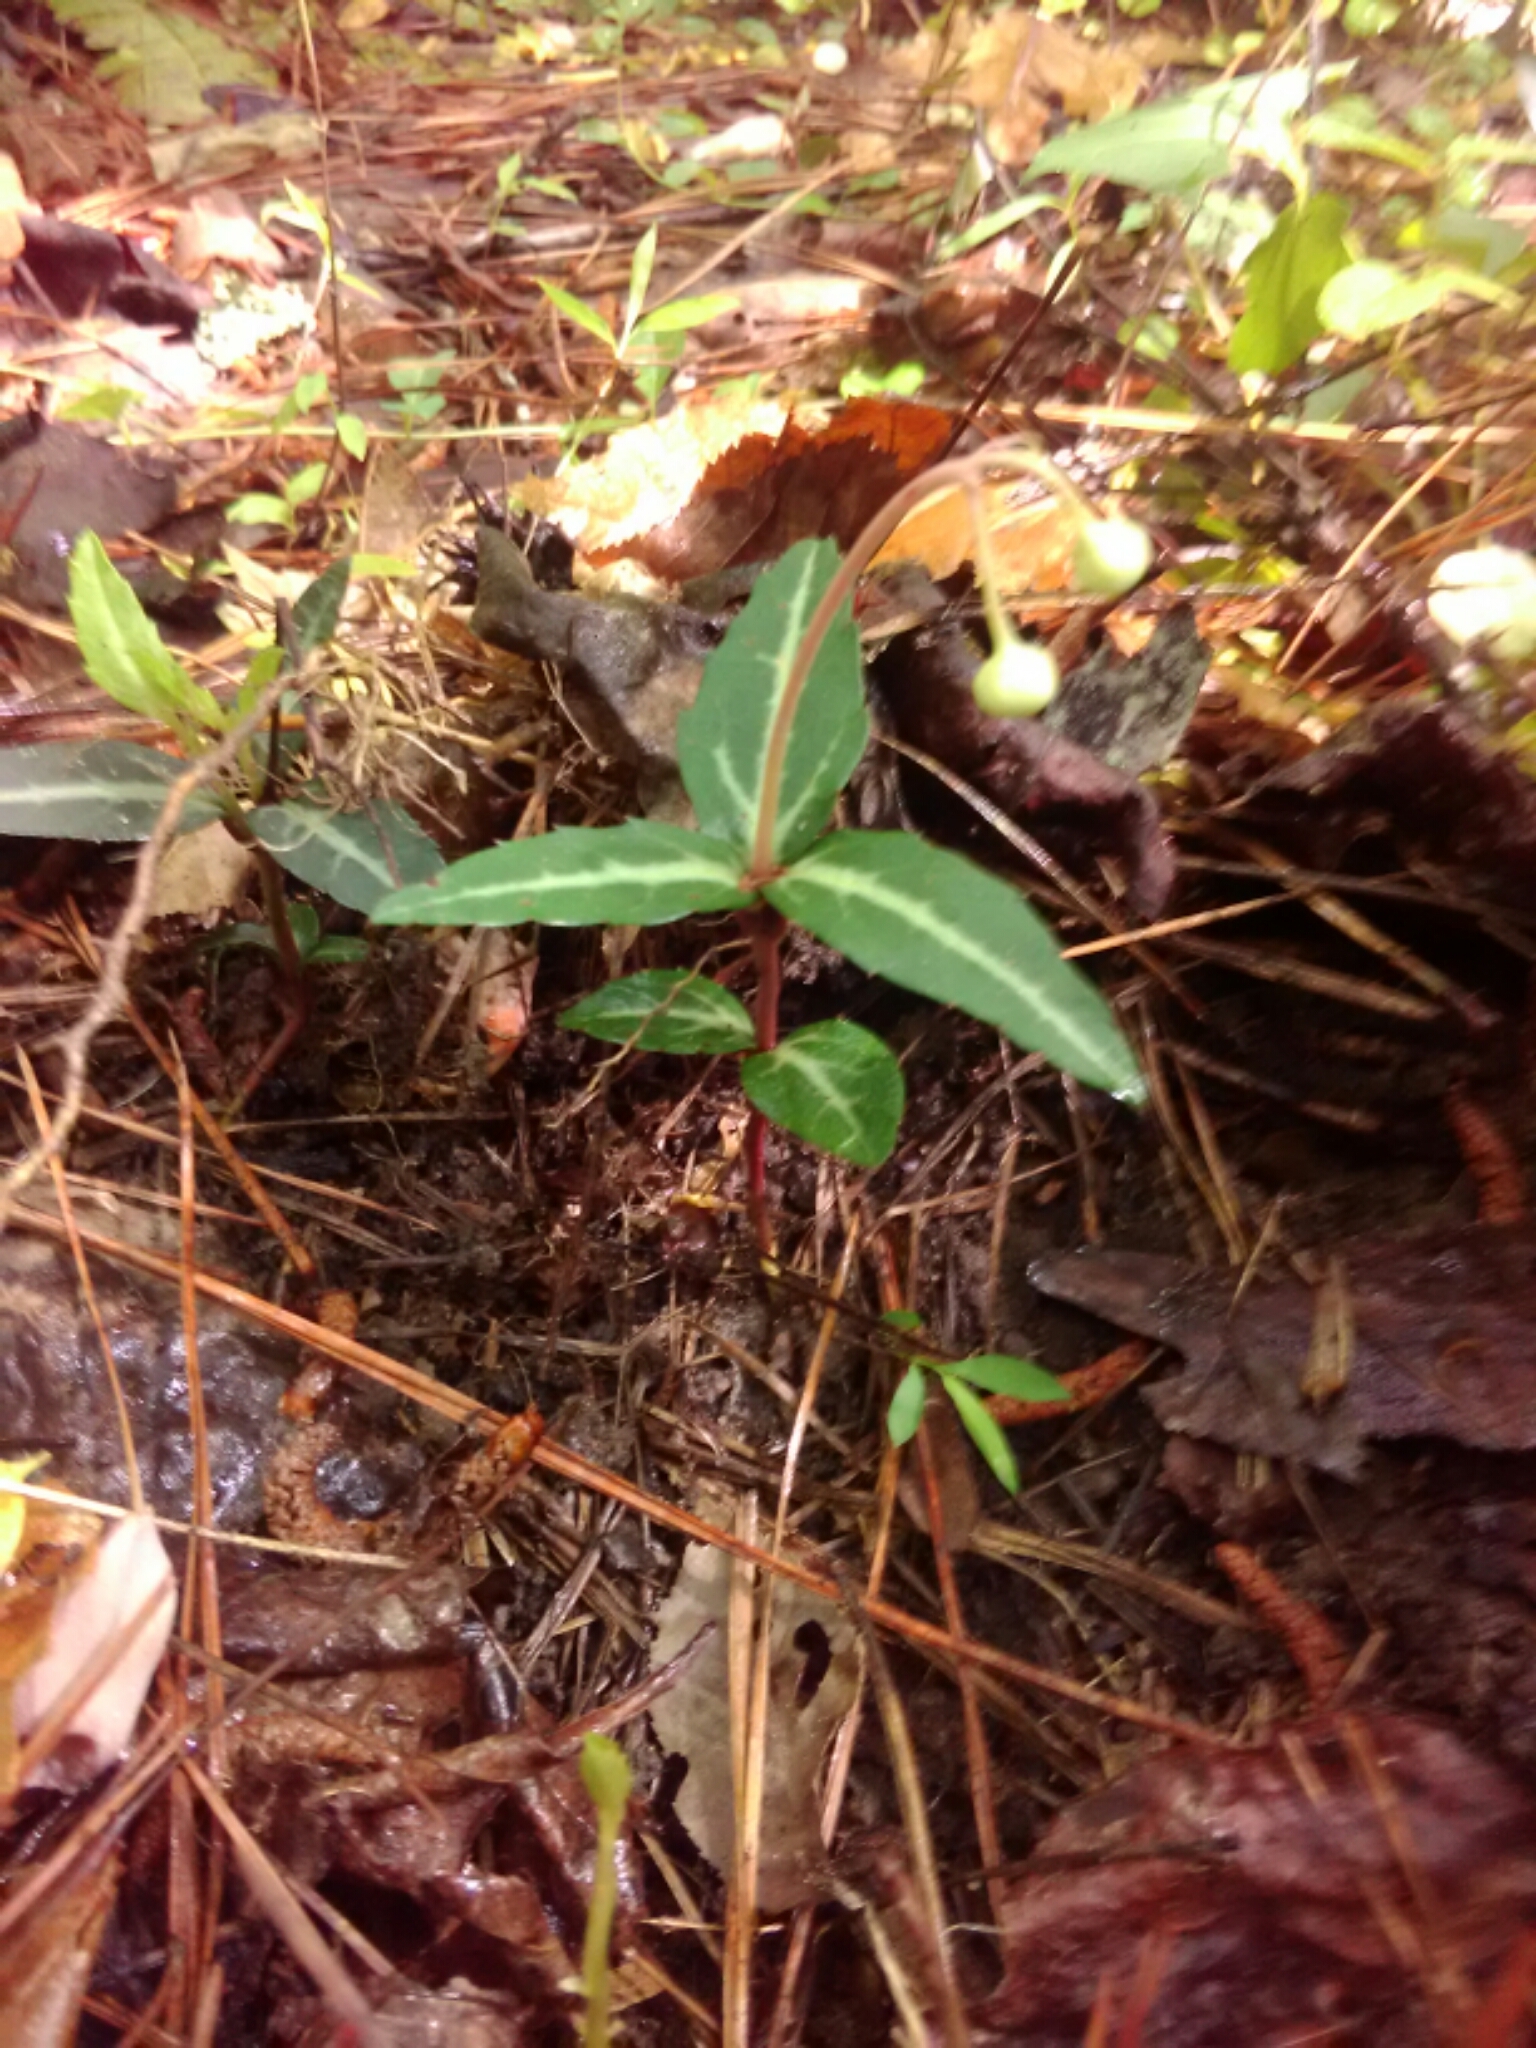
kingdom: Plantae
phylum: Tracheophyta
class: Magnoliopsida
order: Ericales
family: Ericaceae
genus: Chimaphila
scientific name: Chimaphila maculata
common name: Spotted pipsissewa
